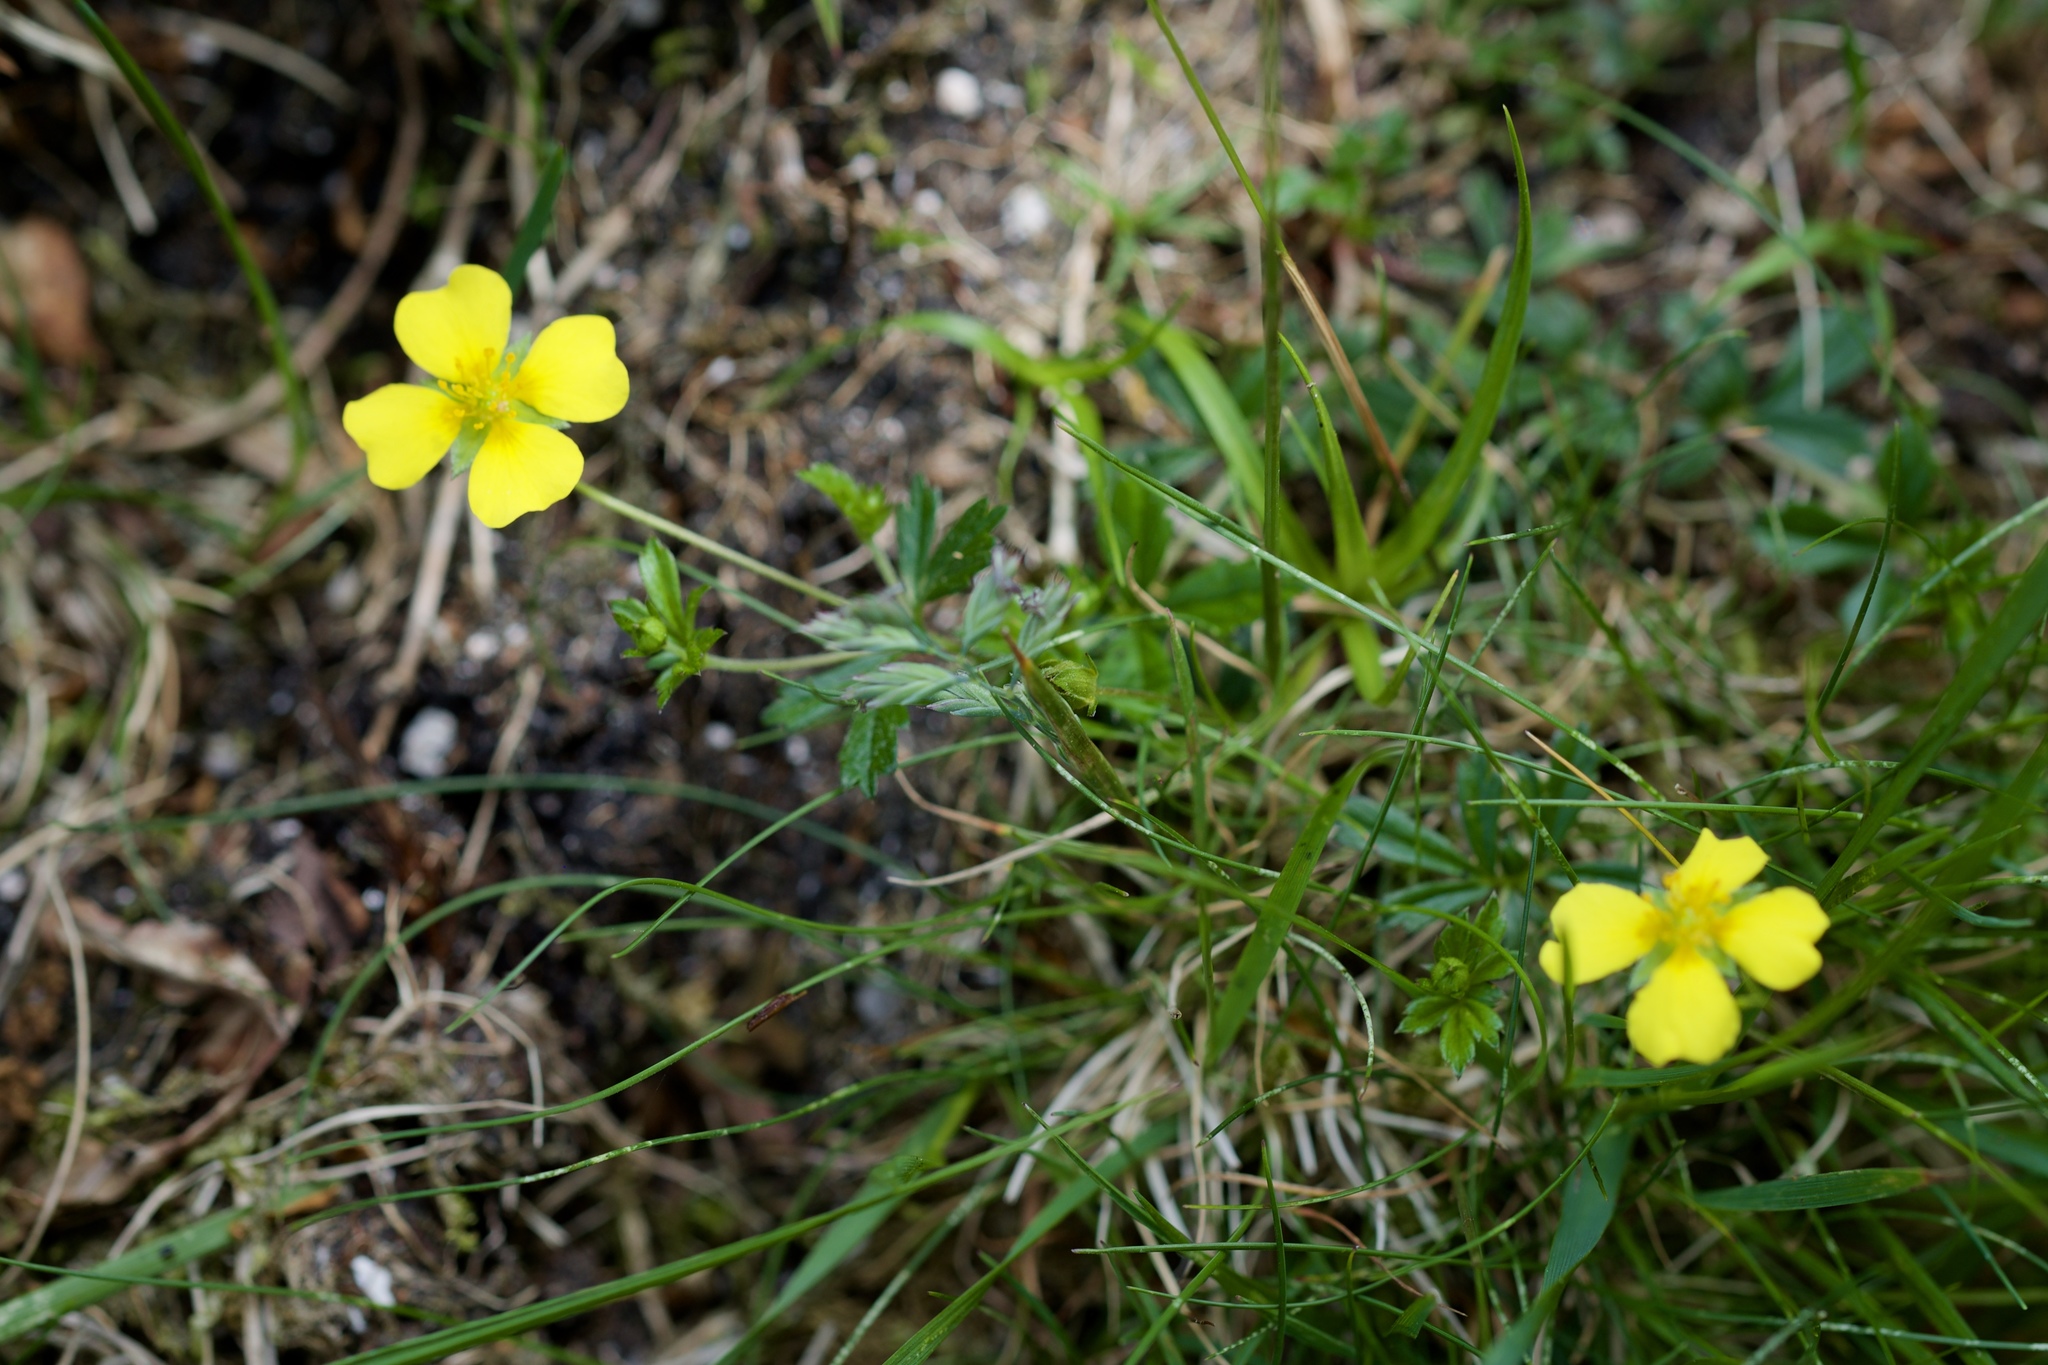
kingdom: Plantae
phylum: Tracheophyta
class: Magnoliopsida
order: Rosales
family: Rosaceae
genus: Potentilla
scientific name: Potentilla erecta
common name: Tormentil
